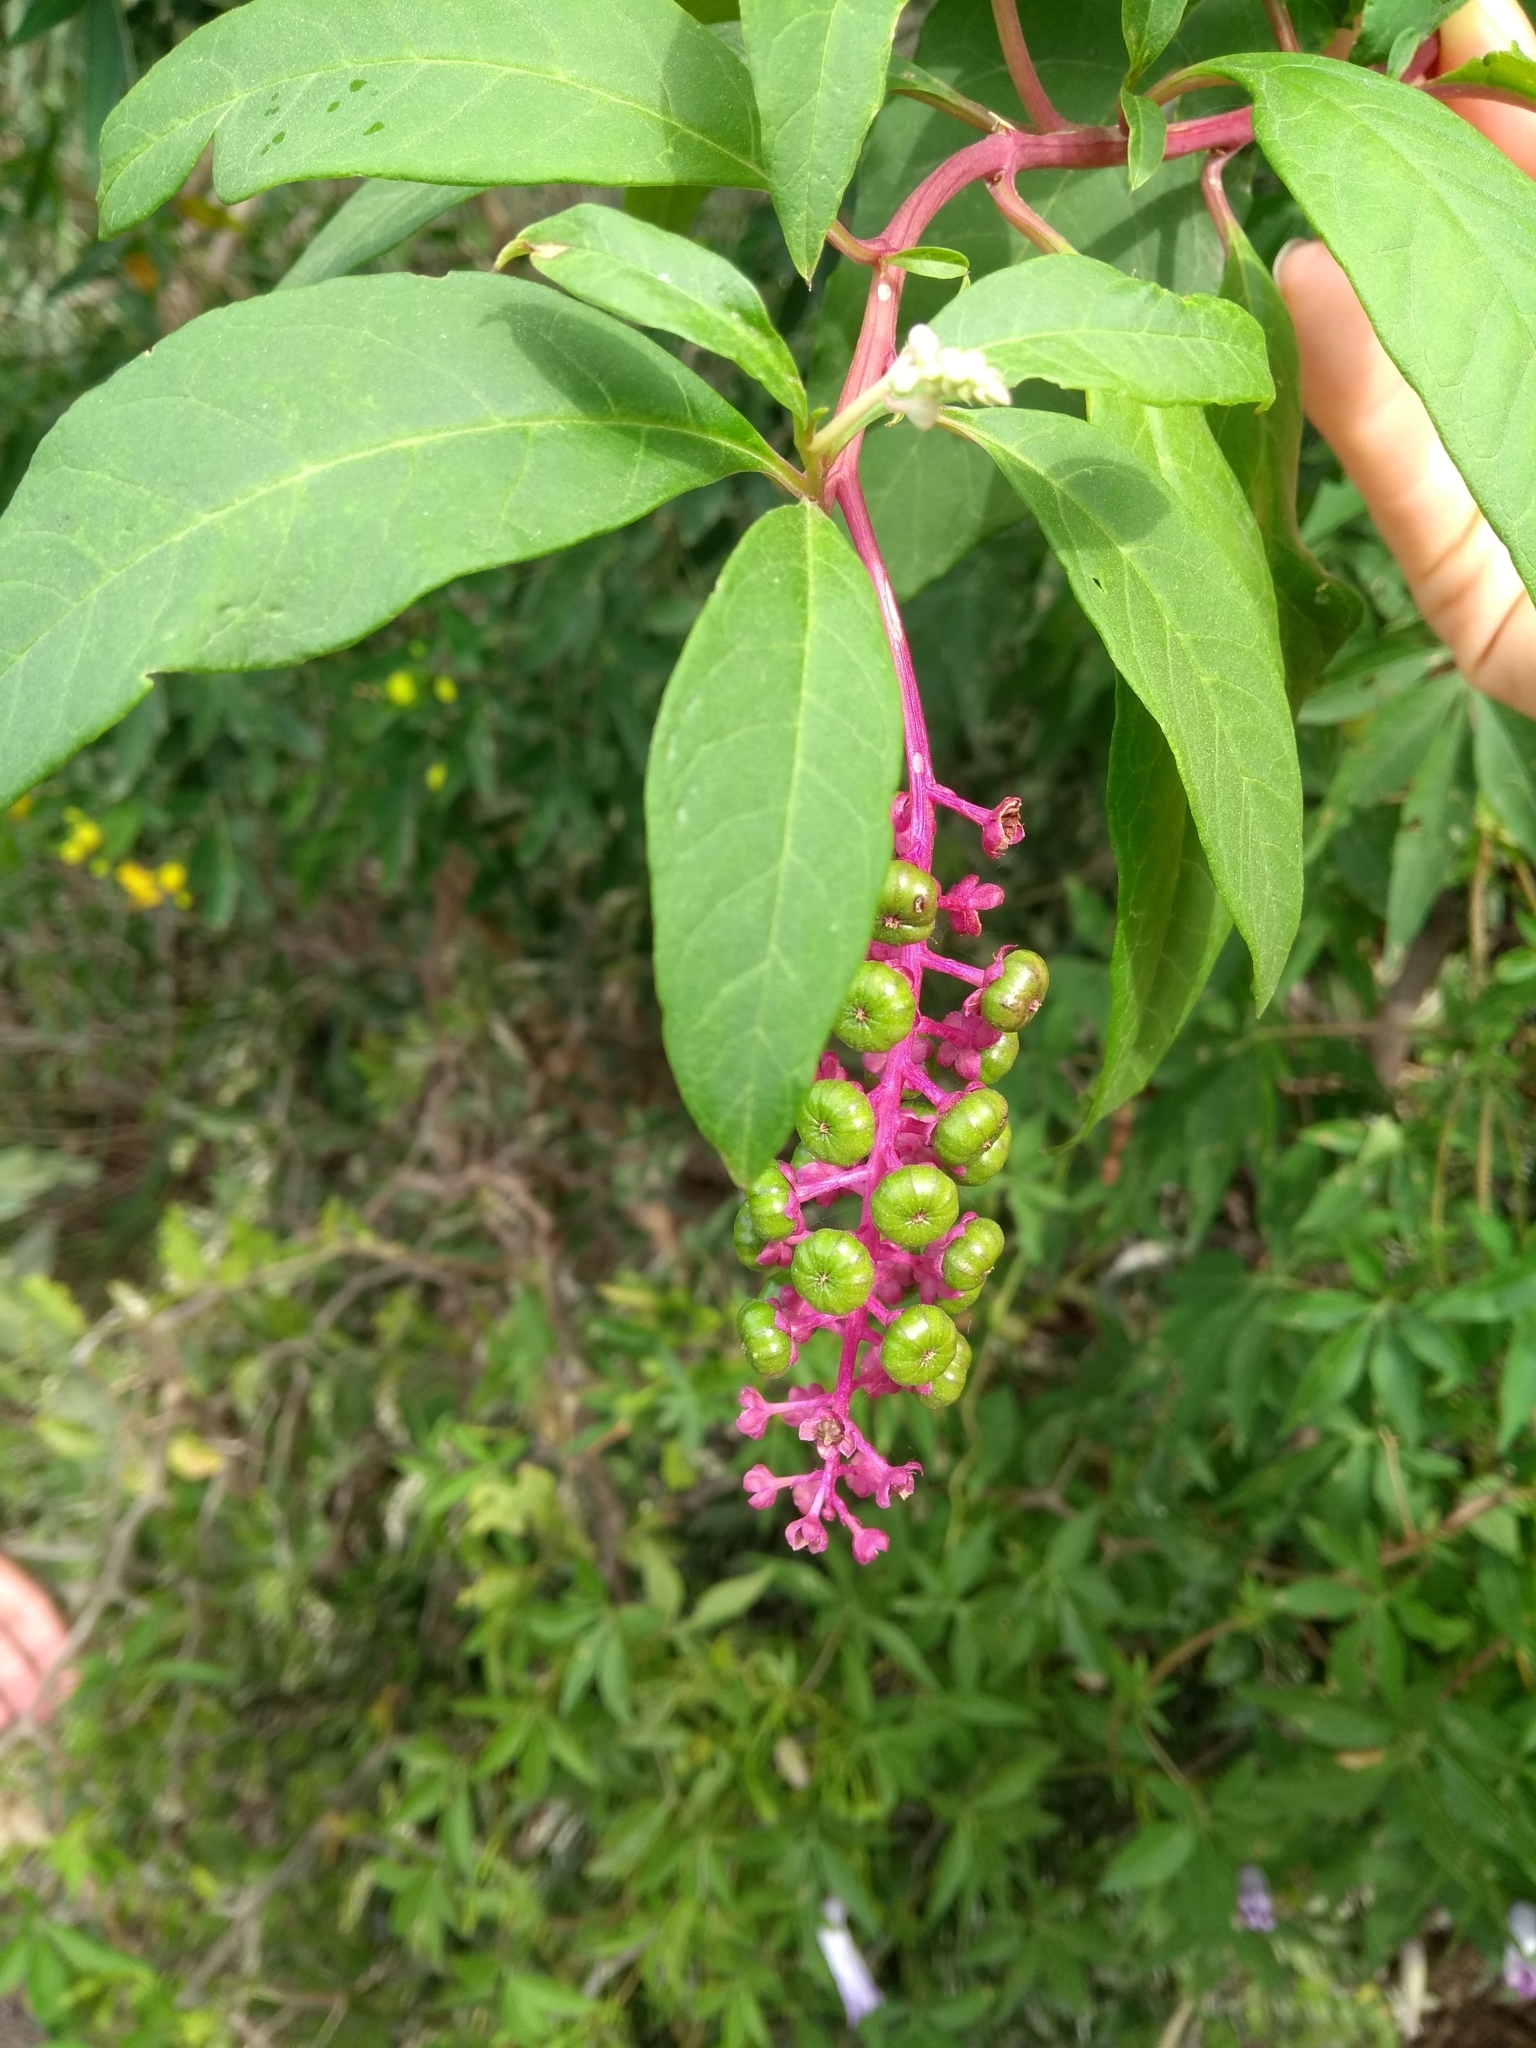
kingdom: Plantae
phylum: Tracheophyta
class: Magnoliopsida
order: Caryophyllales
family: Phytolaccaceae
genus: Phytolacca
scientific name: Phytolacca americana
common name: American pokeweed
